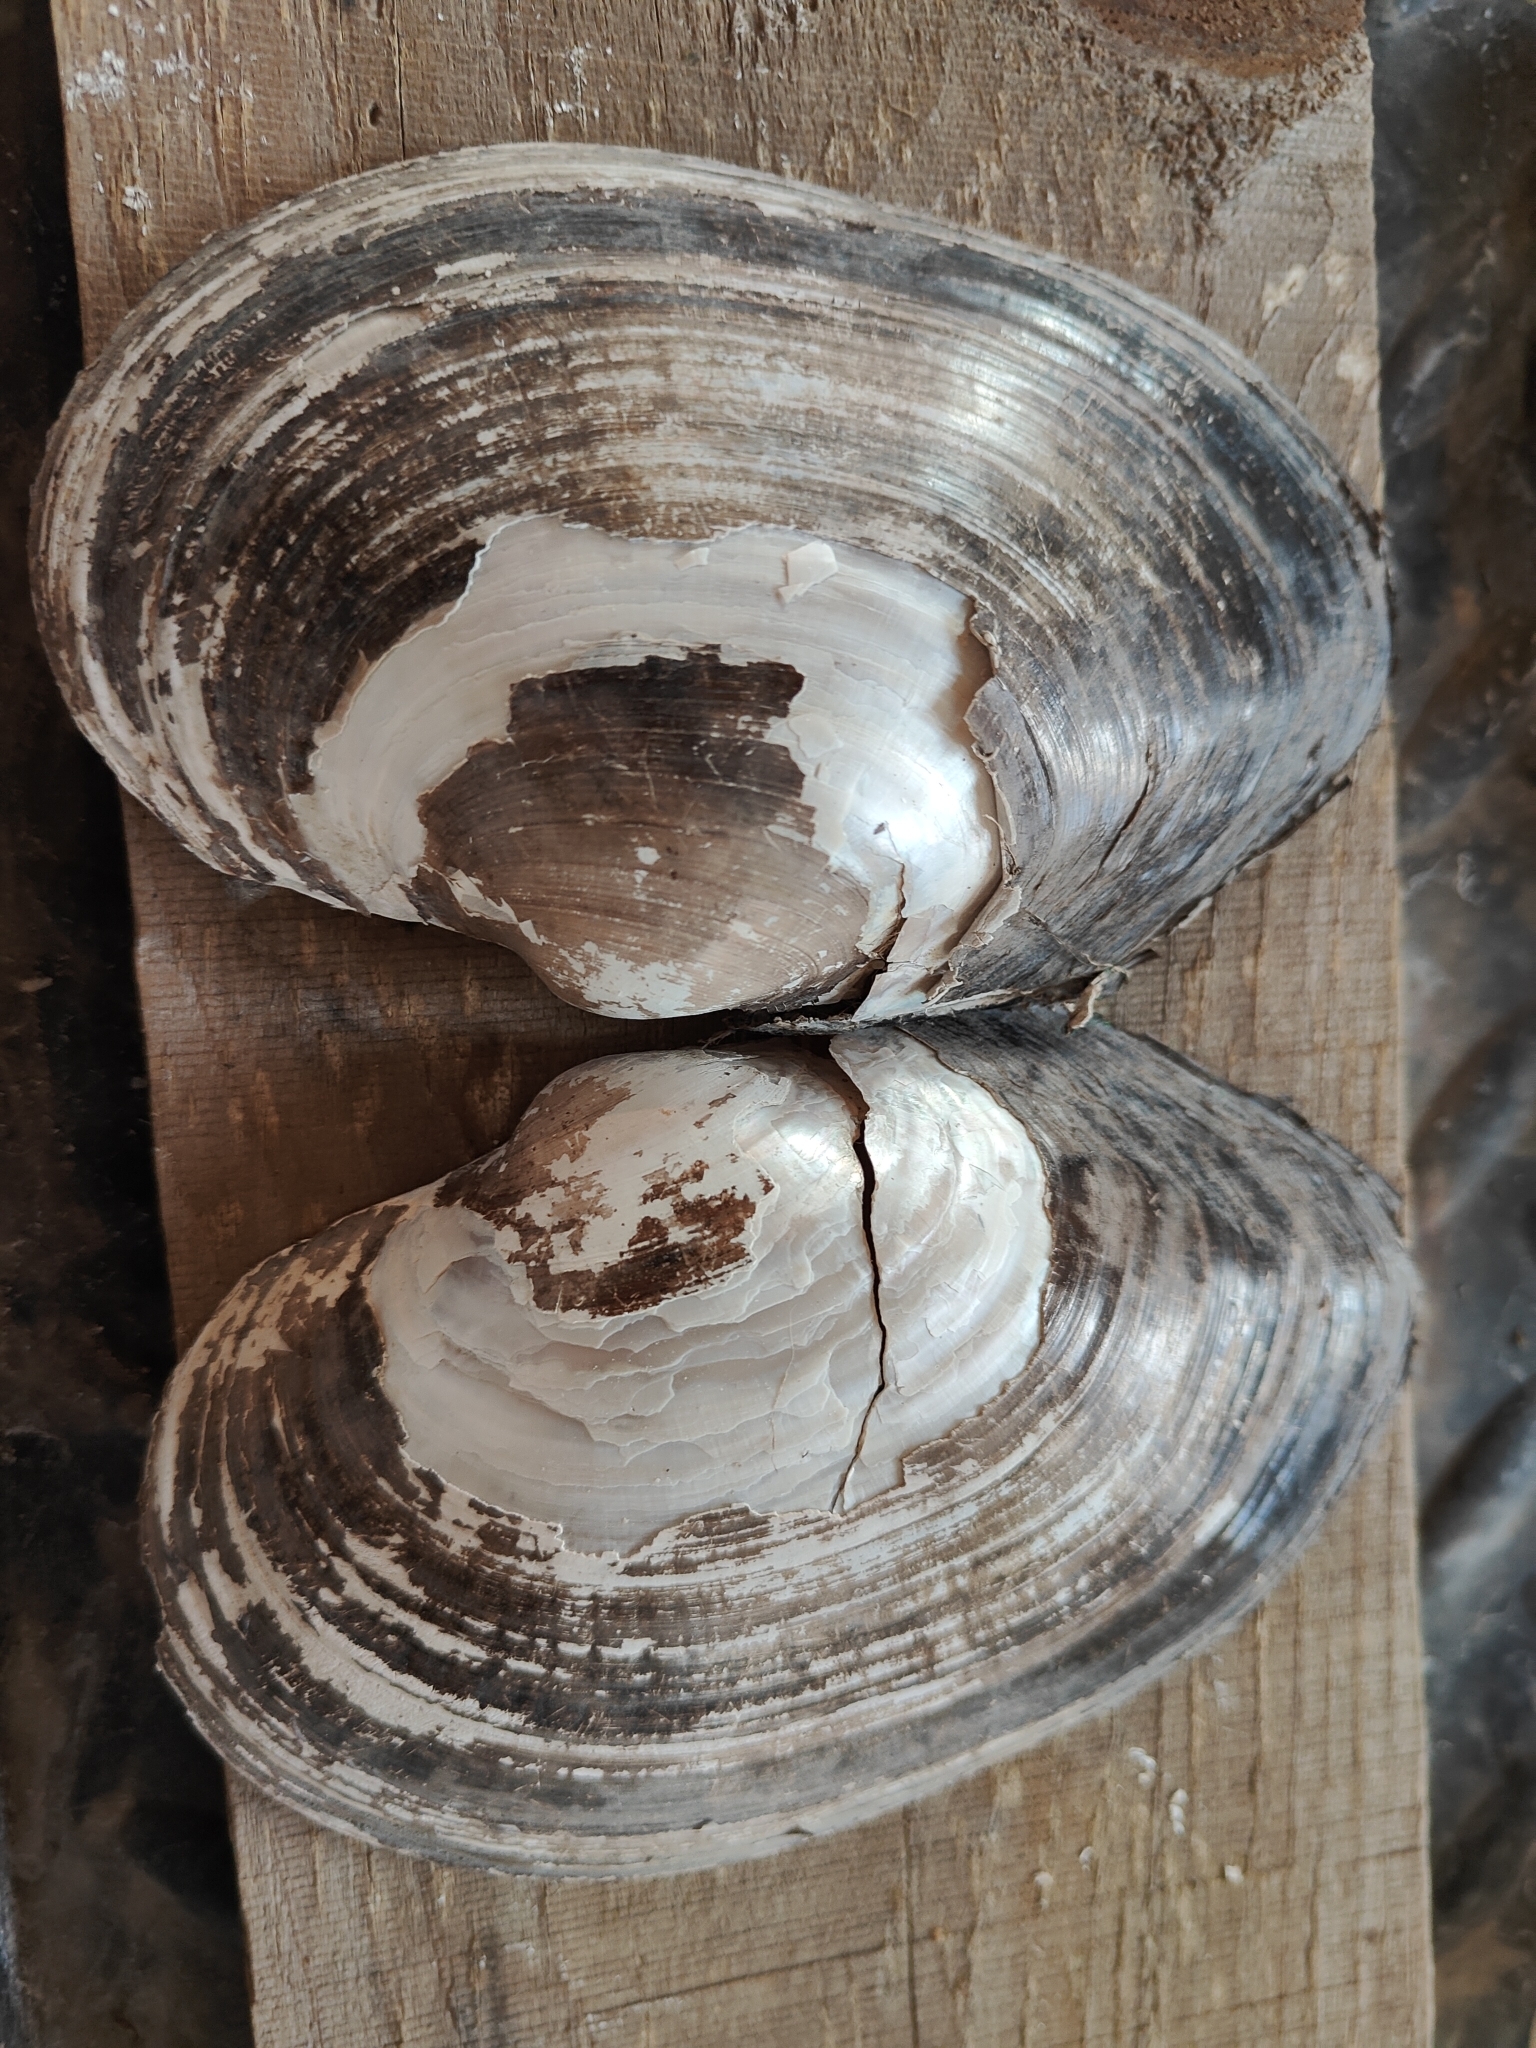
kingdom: Animalia
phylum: Mollusca
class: Bivalvia
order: Unionida
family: Unionidae
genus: Pyganodon
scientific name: Pyganodon grandis
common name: Giant floater
